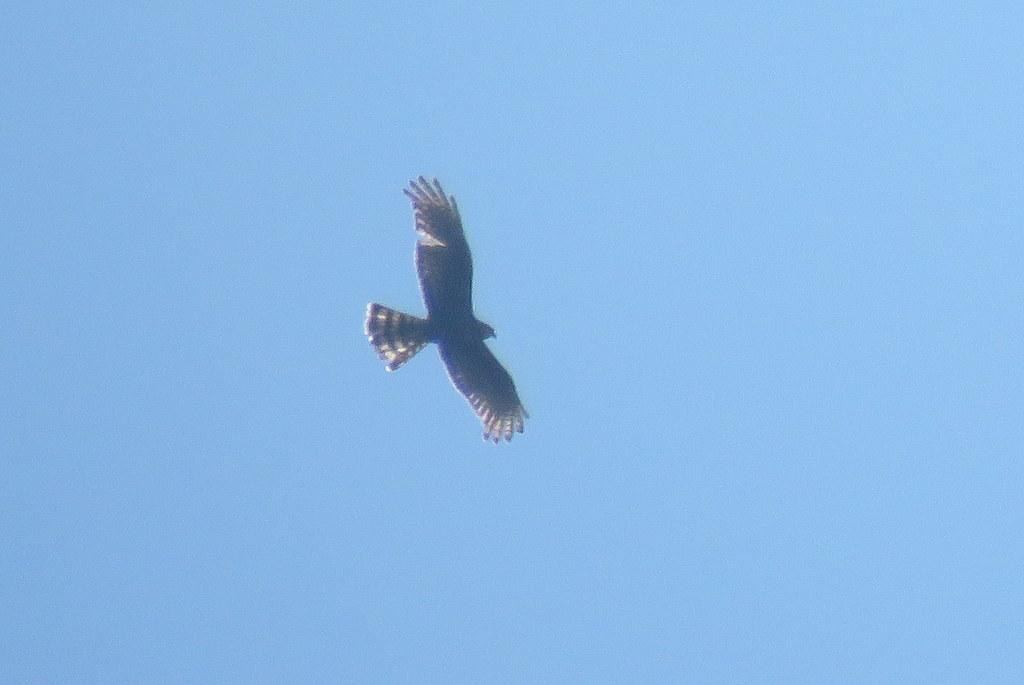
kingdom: Animalia
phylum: Chordata
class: Aves
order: Accipitriformes
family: Accipitridae
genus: Circus
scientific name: Circus buffoni
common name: Long-winged harrier
